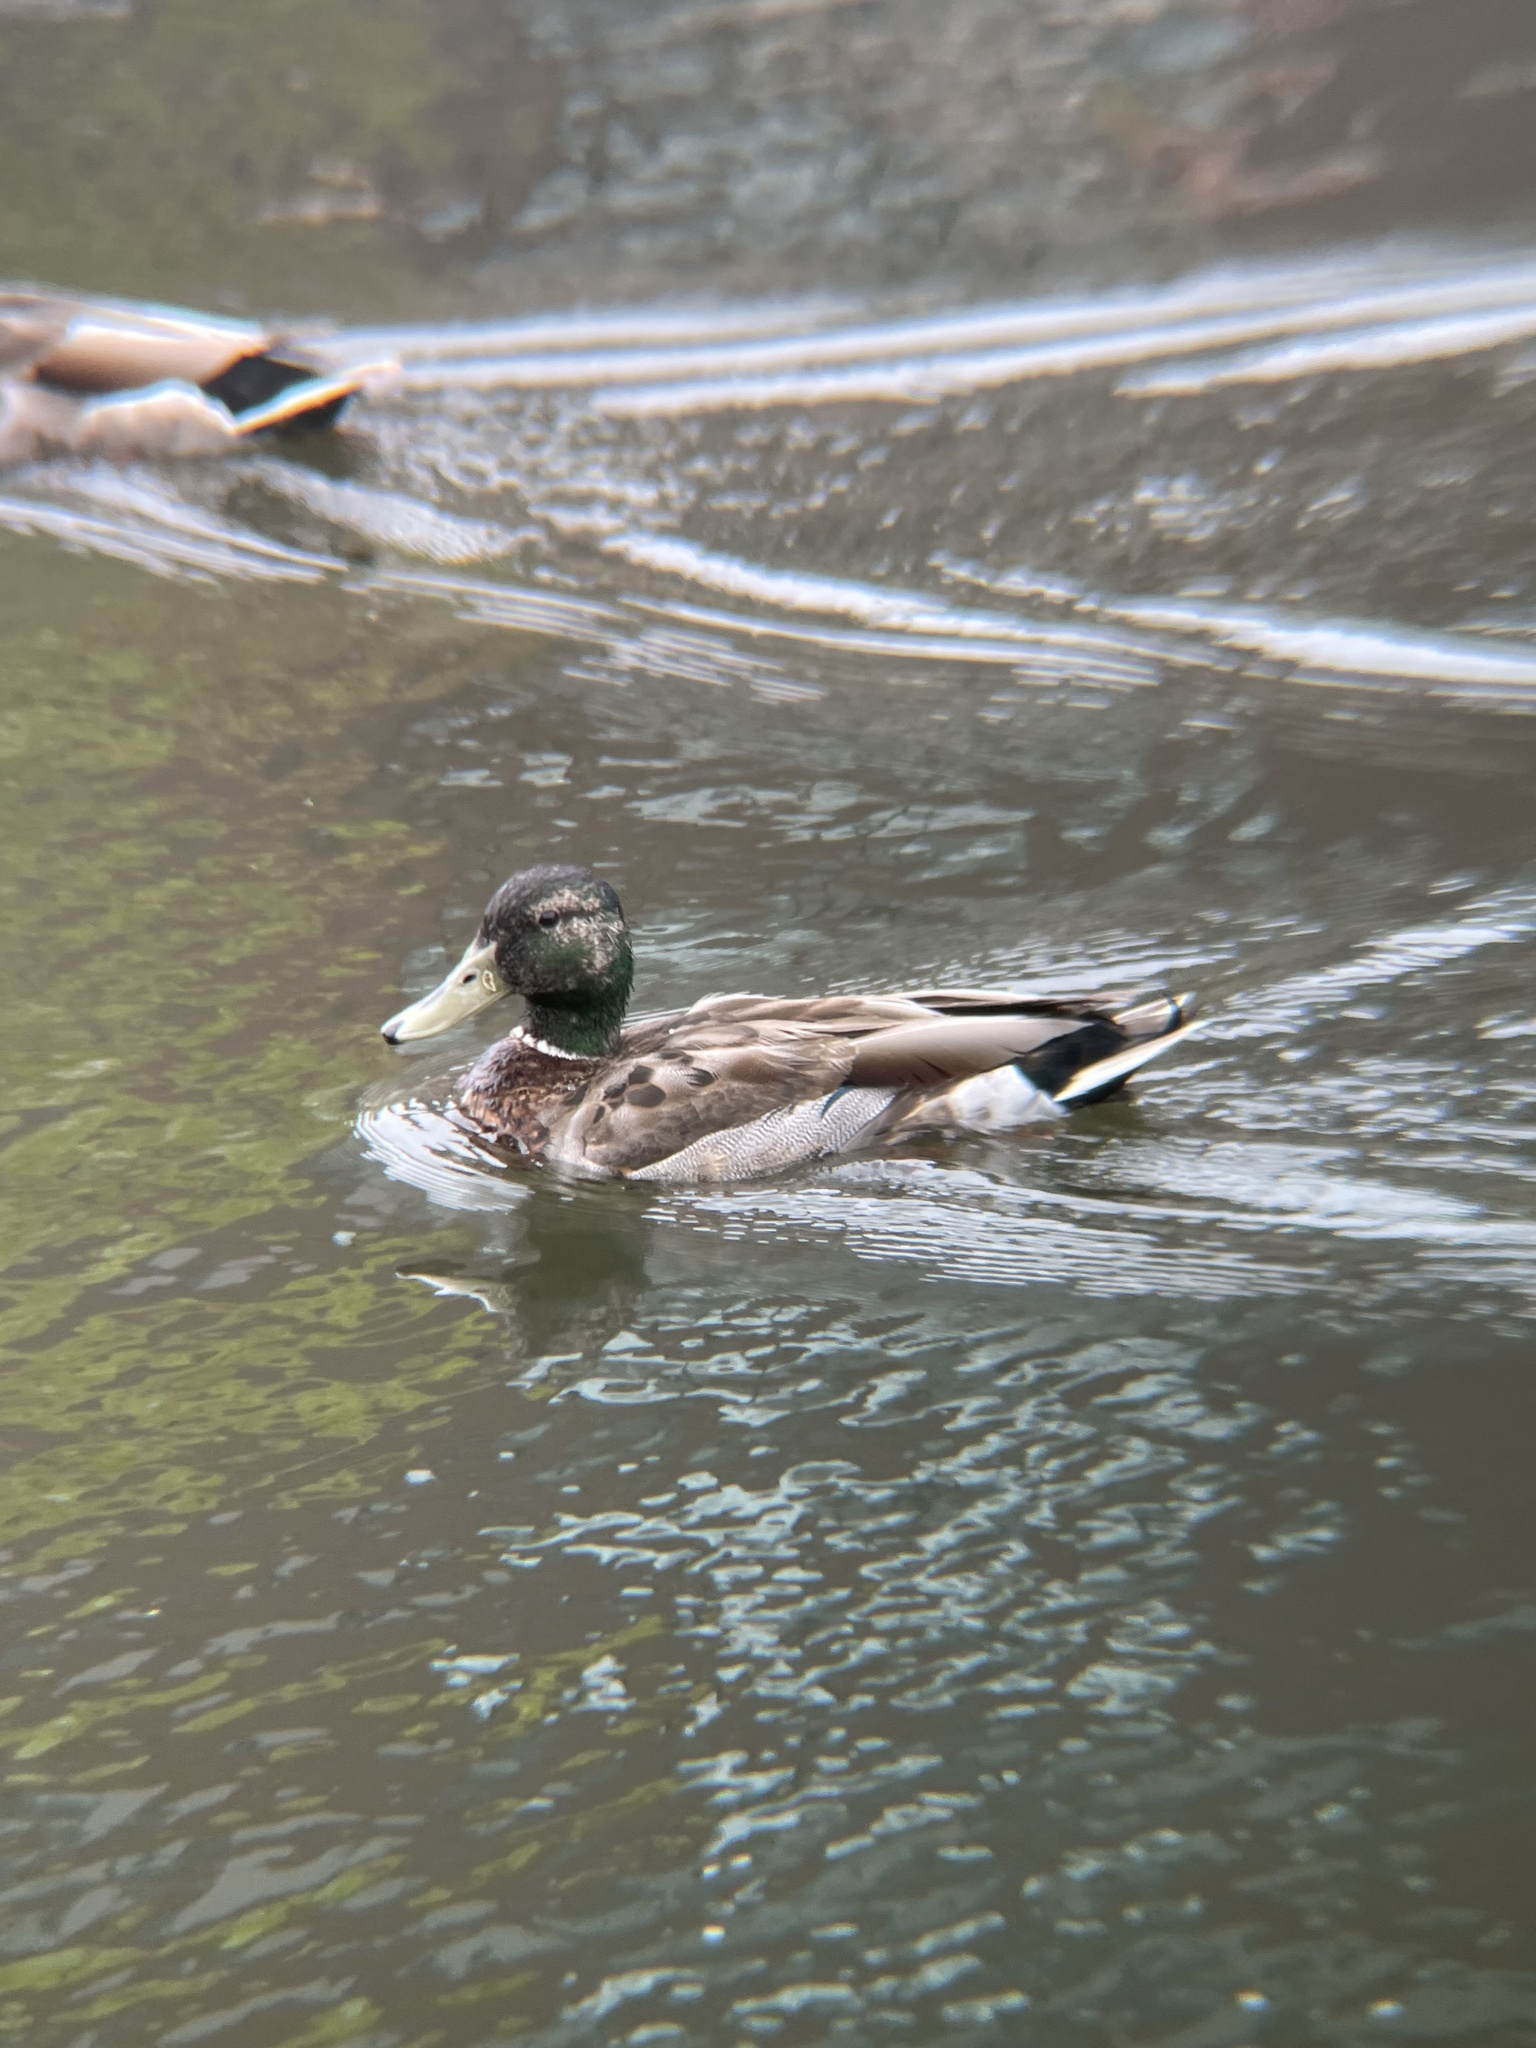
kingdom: Animalia
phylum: Chordata
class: Aves
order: Anseriformes
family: Anatidae
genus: Anas
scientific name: Anas platyrhynchos
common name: Mallard
